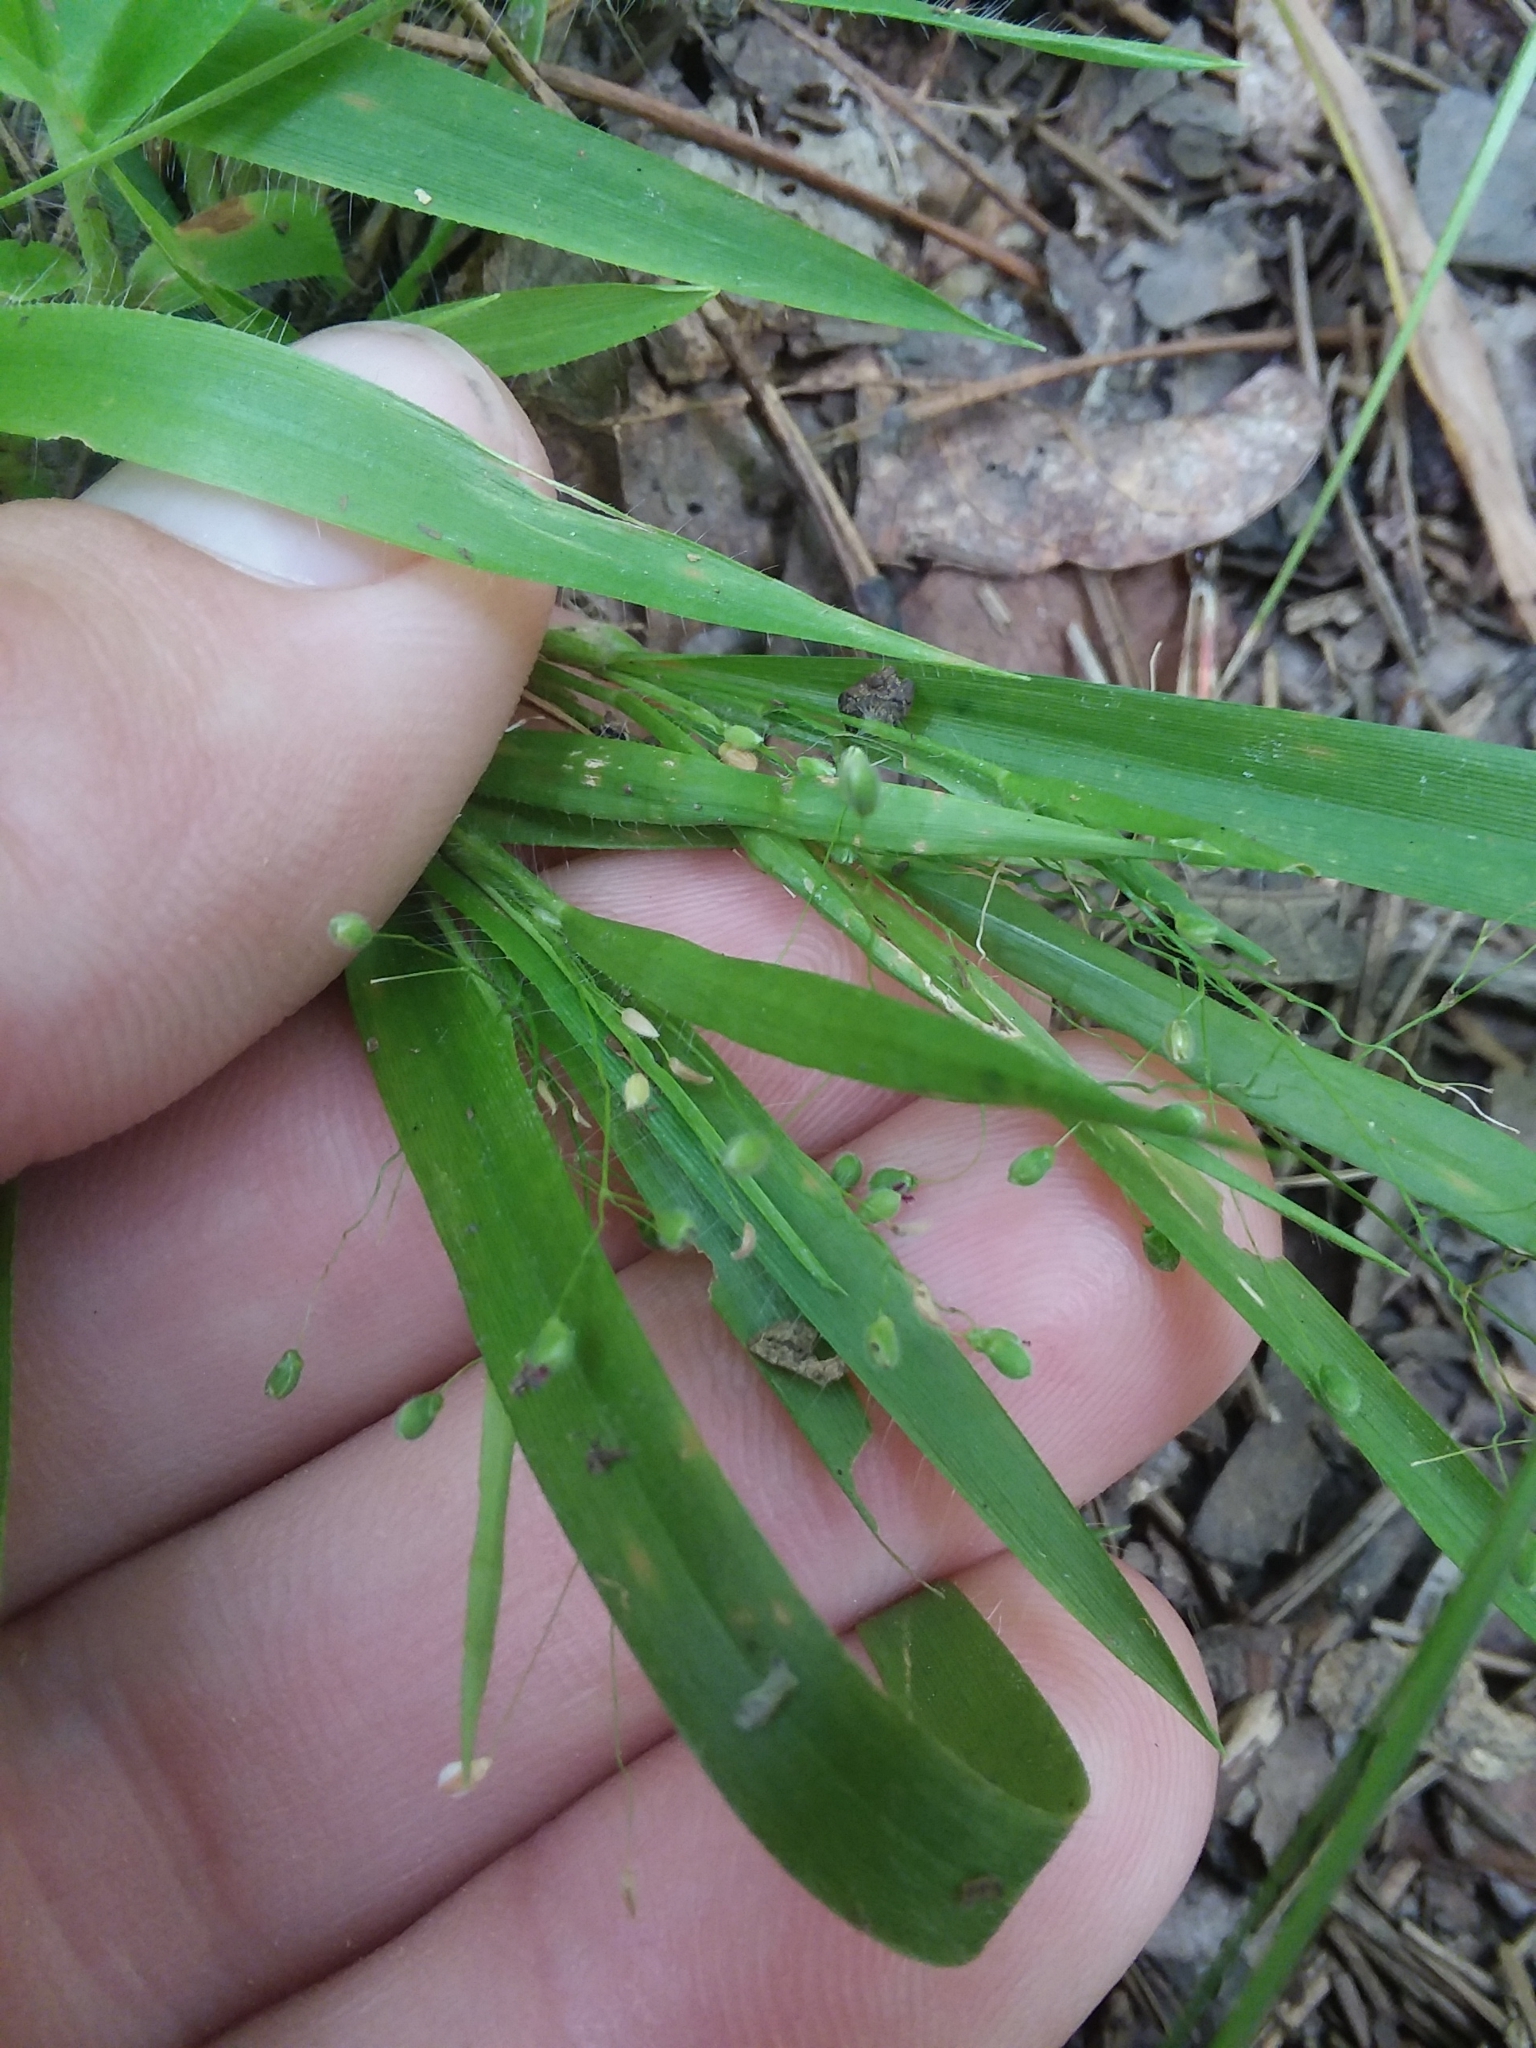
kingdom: Plantae
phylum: Tracheophyta
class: Liliopsida
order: Poales
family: Poaceae
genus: Dichanthelium
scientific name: Dichanthelium laxiflorum
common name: Soft-tuft panic grass
